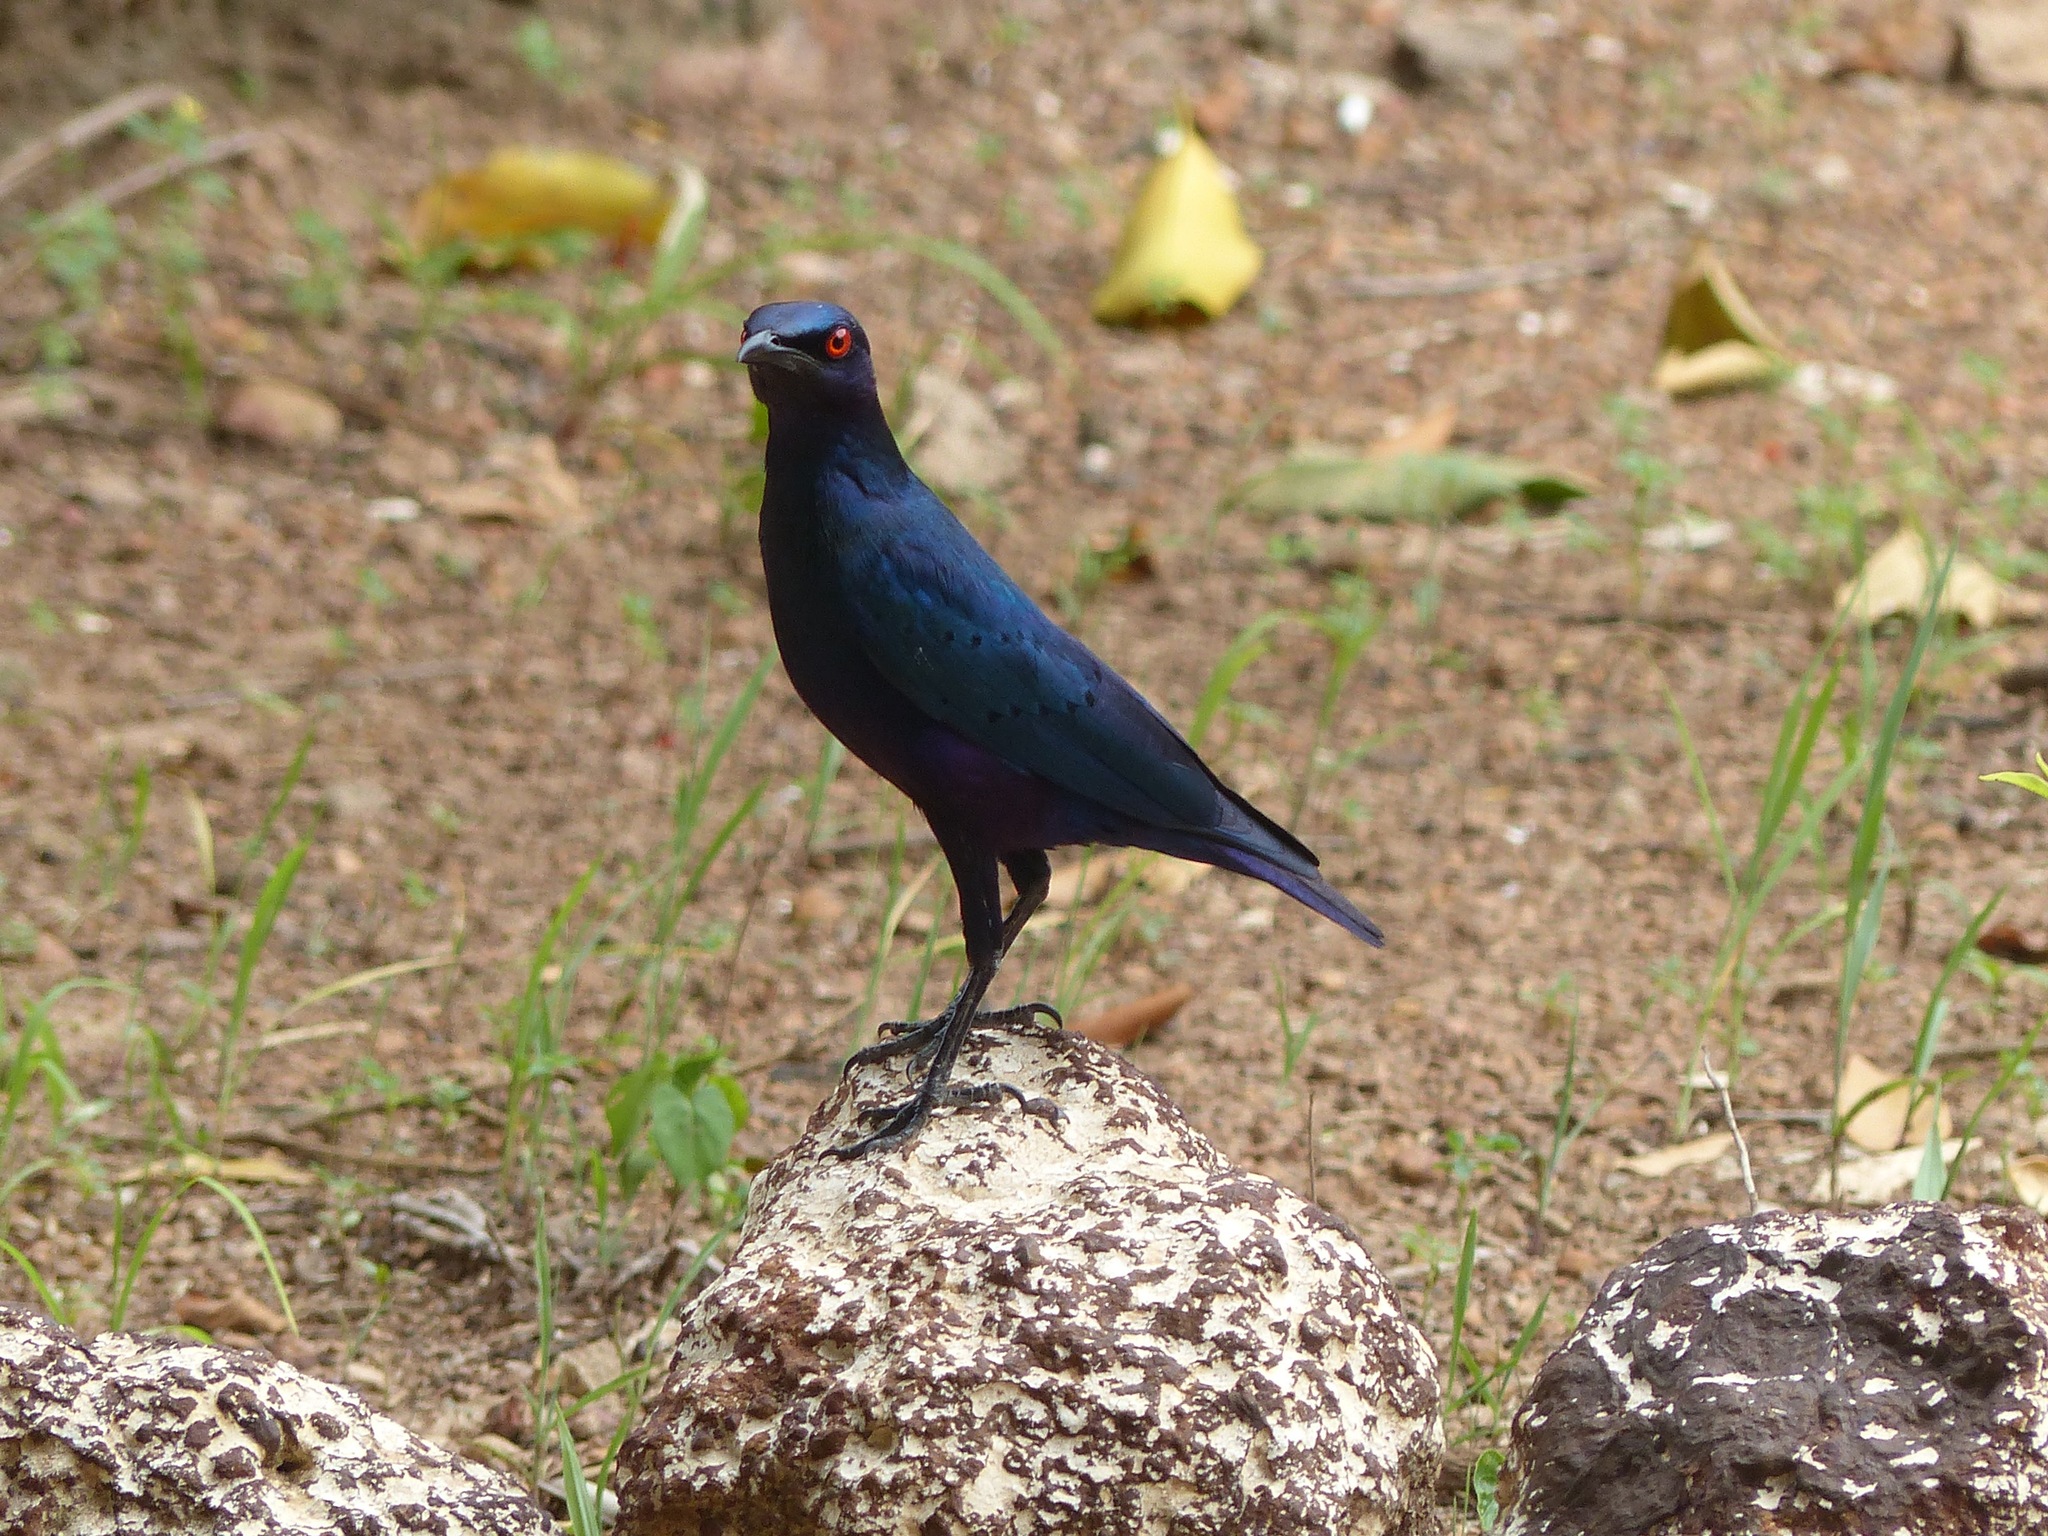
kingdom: Animalia
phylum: Chordata
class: Aves
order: Passeriformes
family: Sturnidae
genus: Lamprotornis
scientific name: Lamprotornis chalcurus
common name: Bronze-tailed starling
